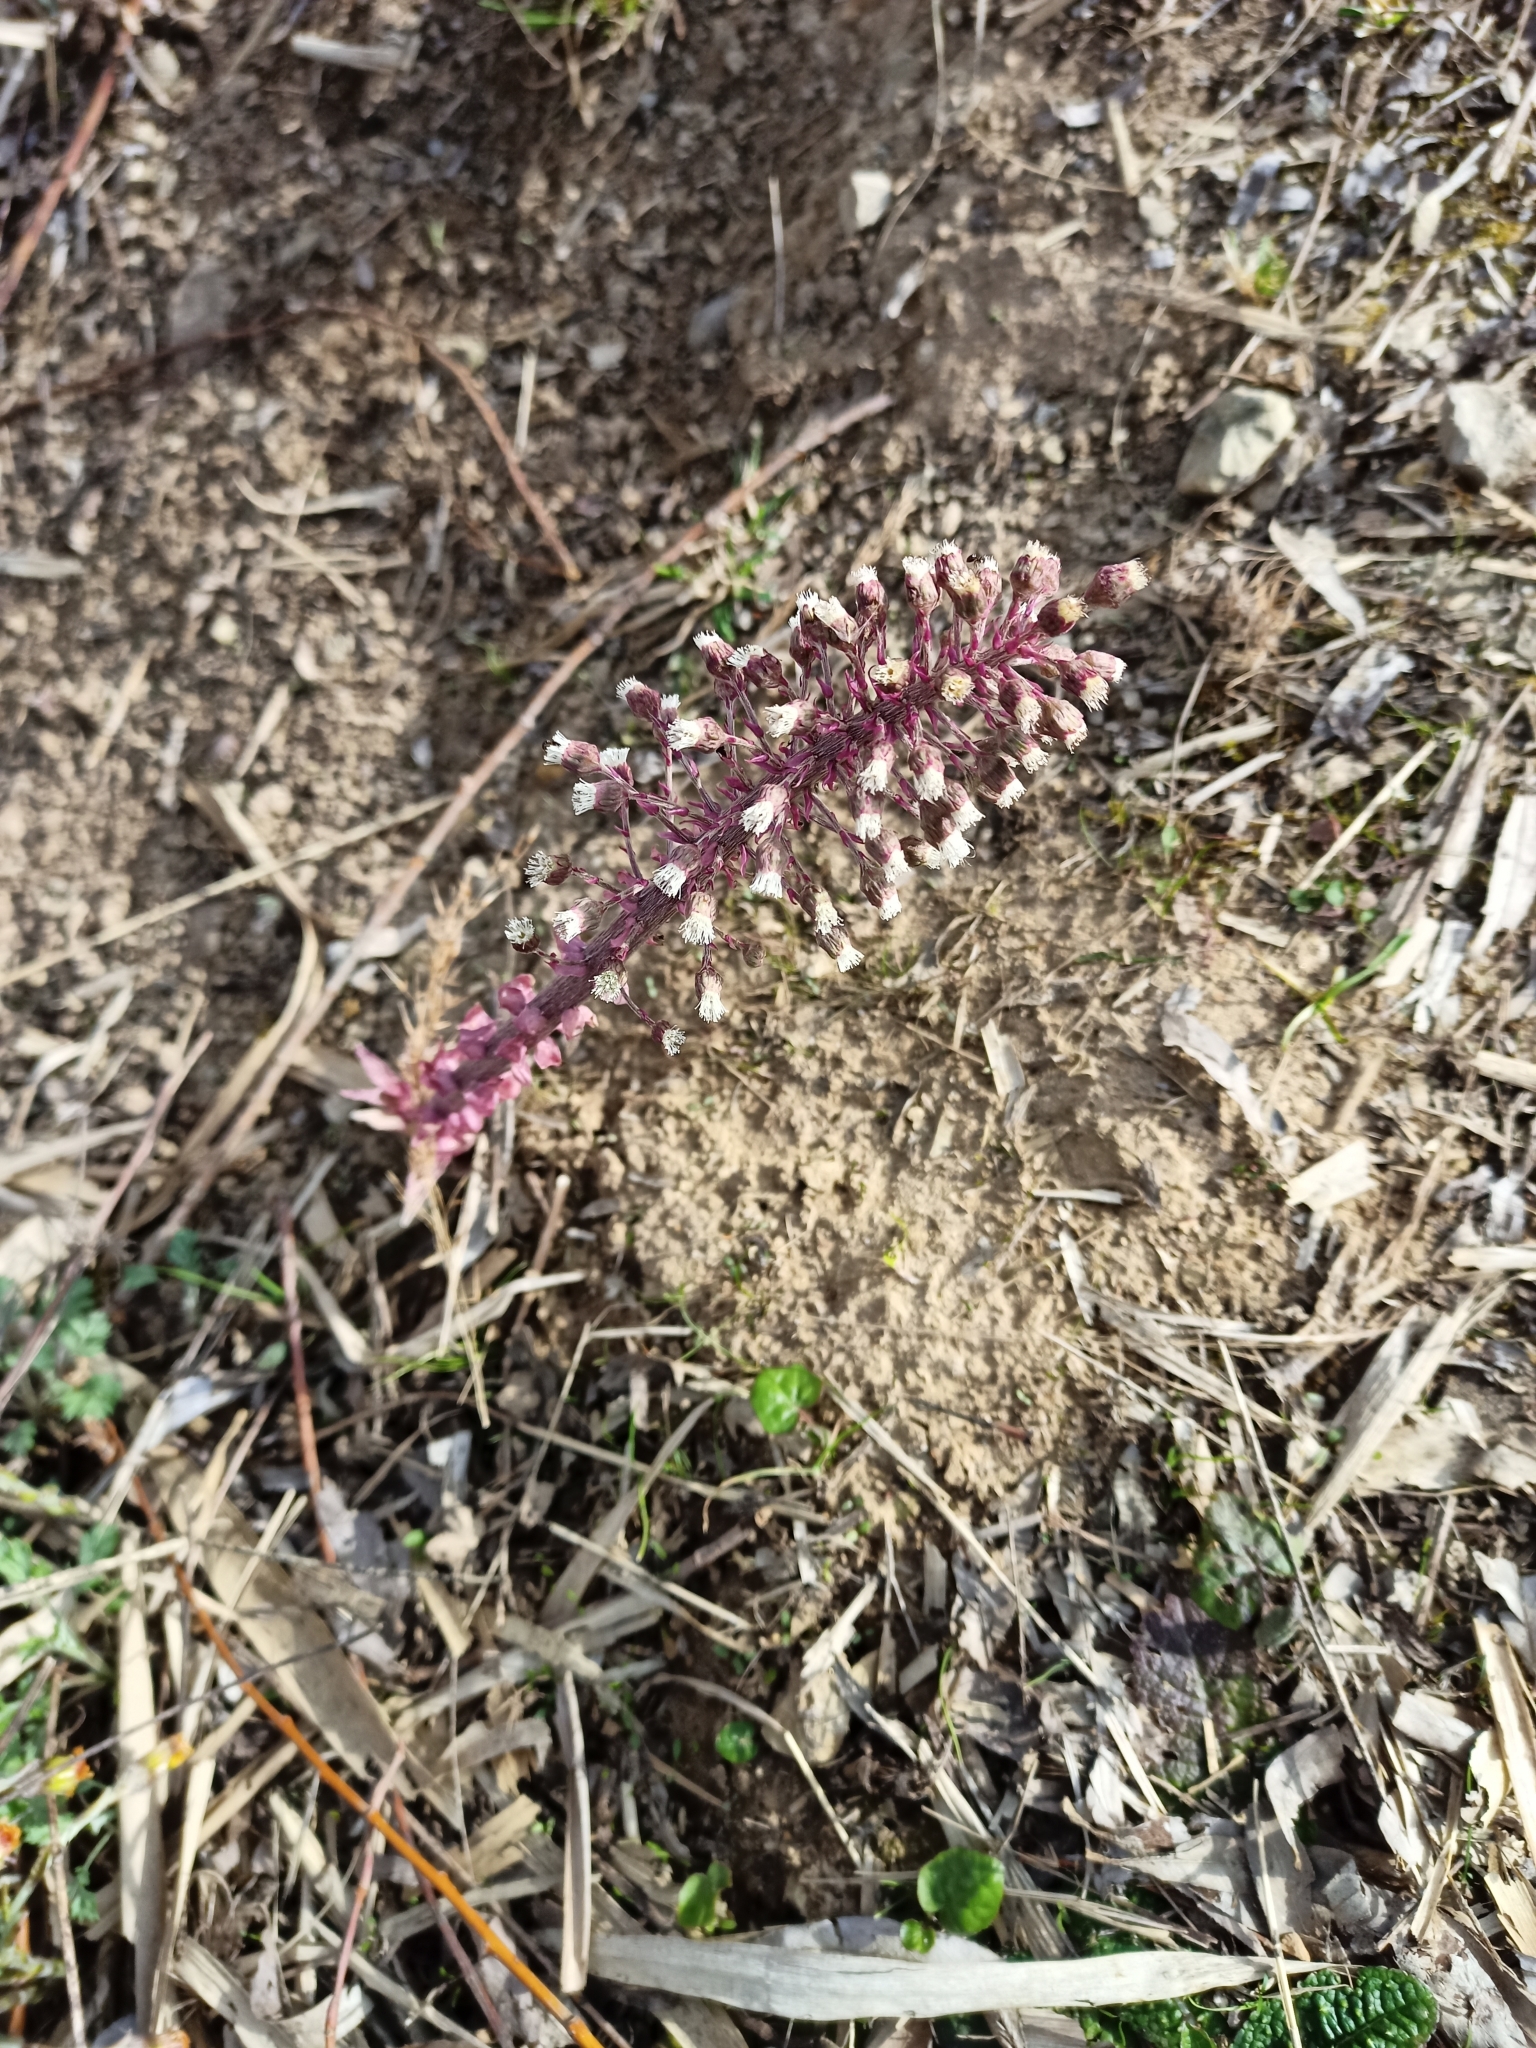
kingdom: Plantae
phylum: Tracheophyta
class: Magnoliopsida
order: Asterales
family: Asteraceae
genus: Petasites
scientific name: Petasites hybridus
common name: Butterbur
